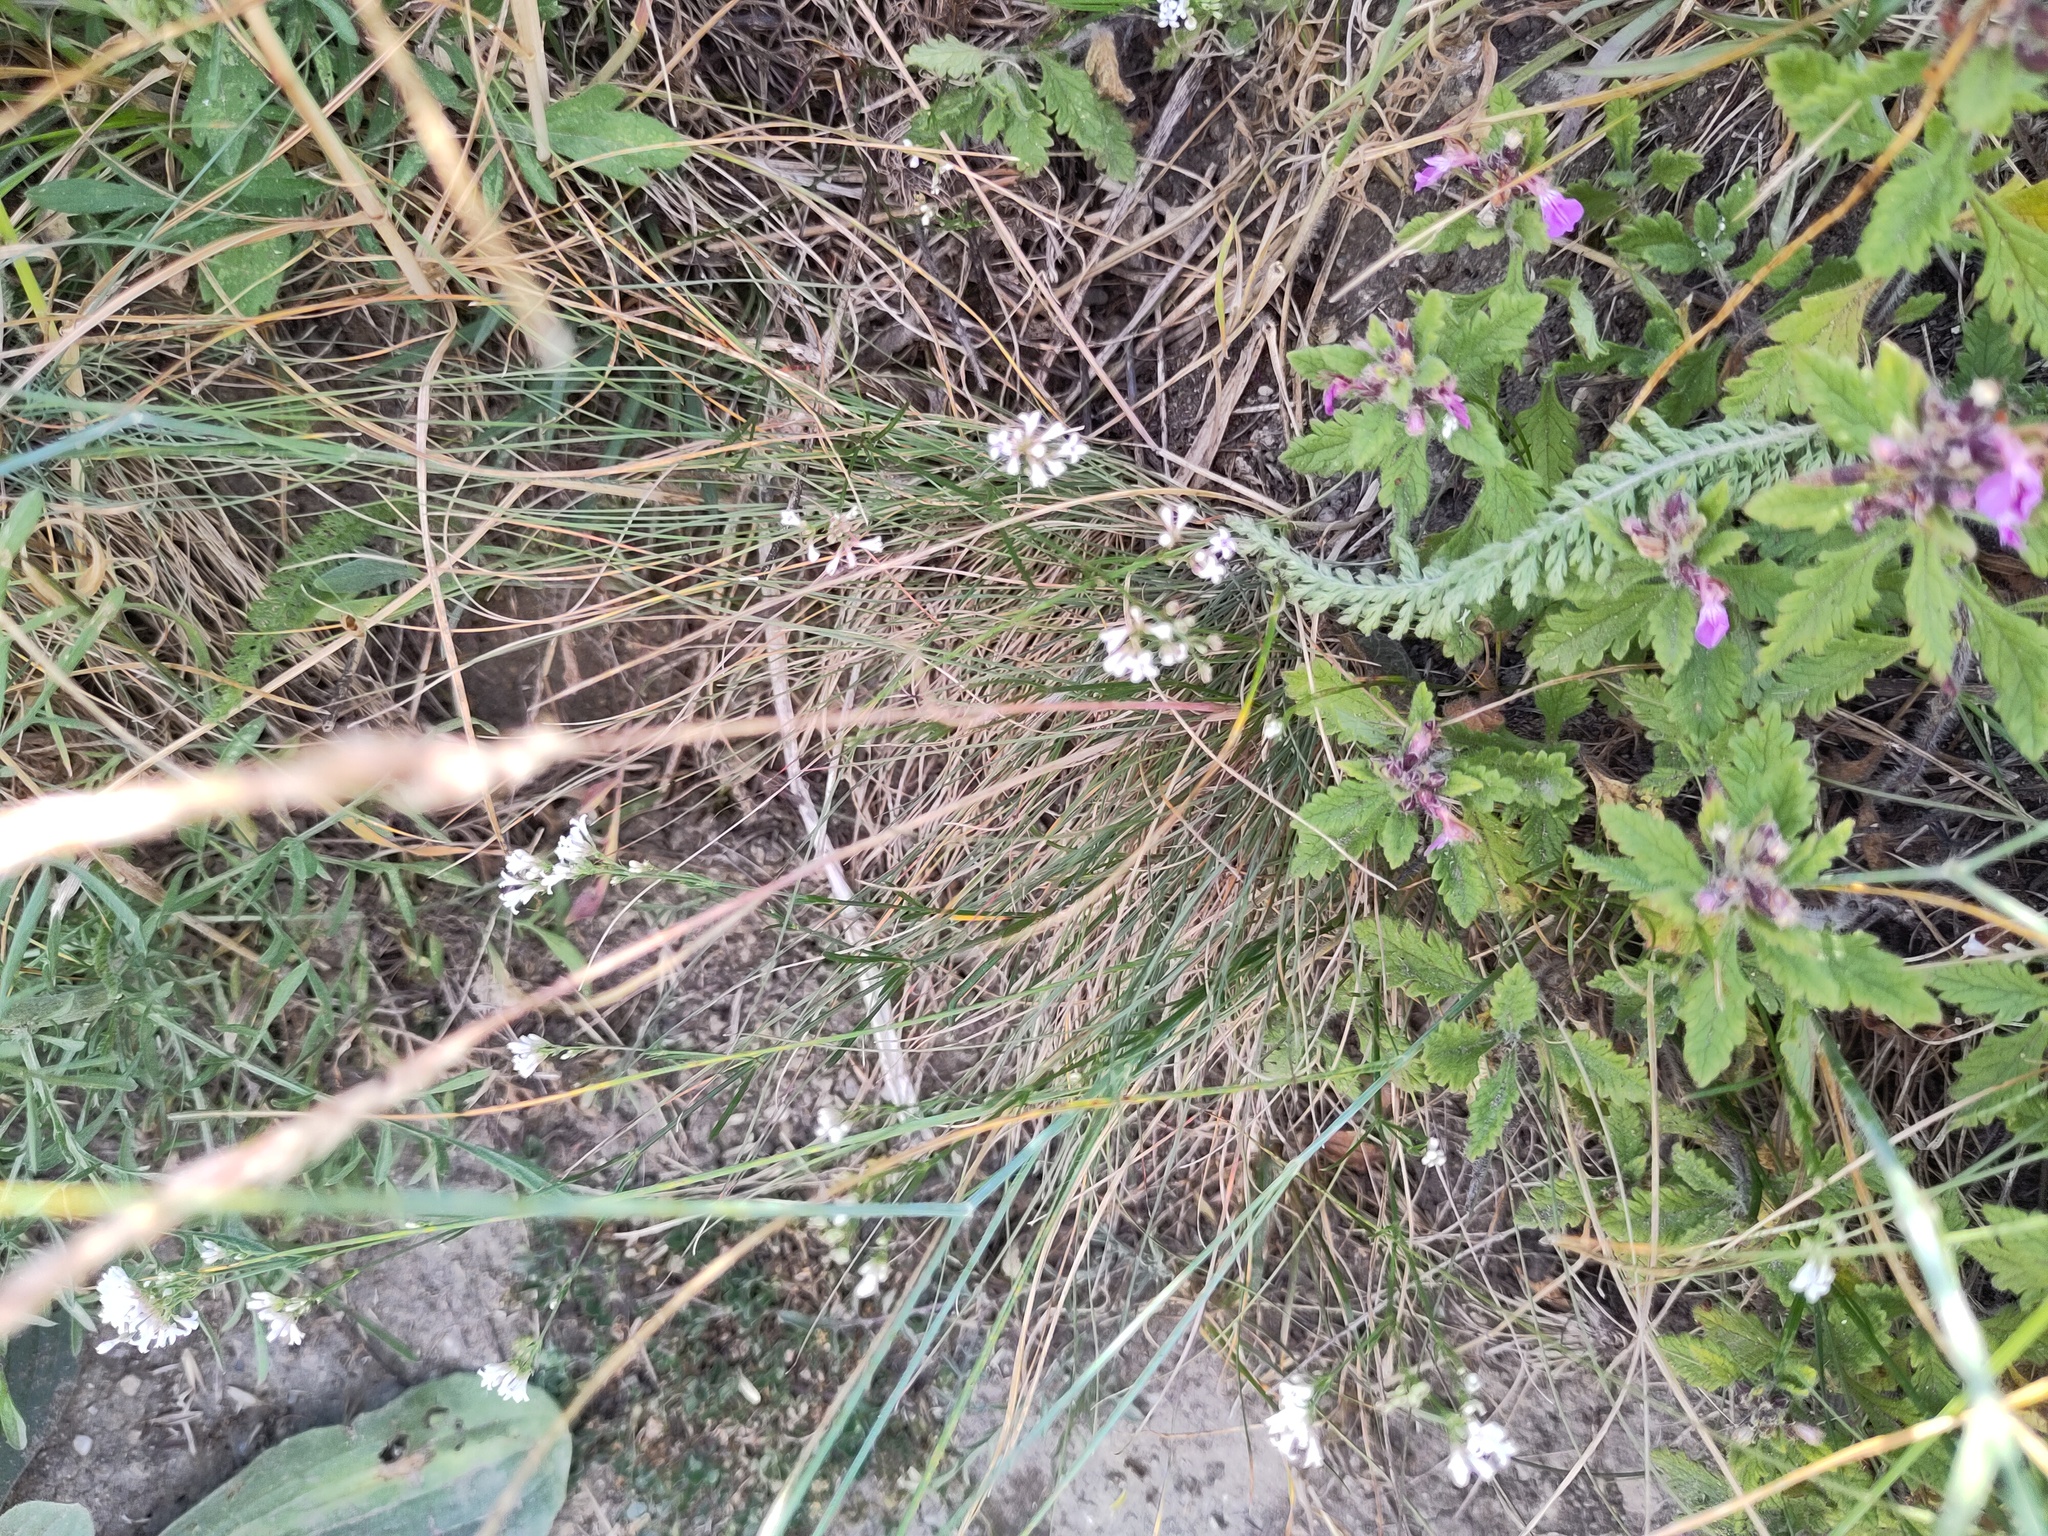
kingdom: Plantae
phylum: Tracheophyta
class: Magnoliopsida
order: Gentianales
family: Rubiaceae
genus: Cynanchica
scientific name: Cynanchica pyrenaica
